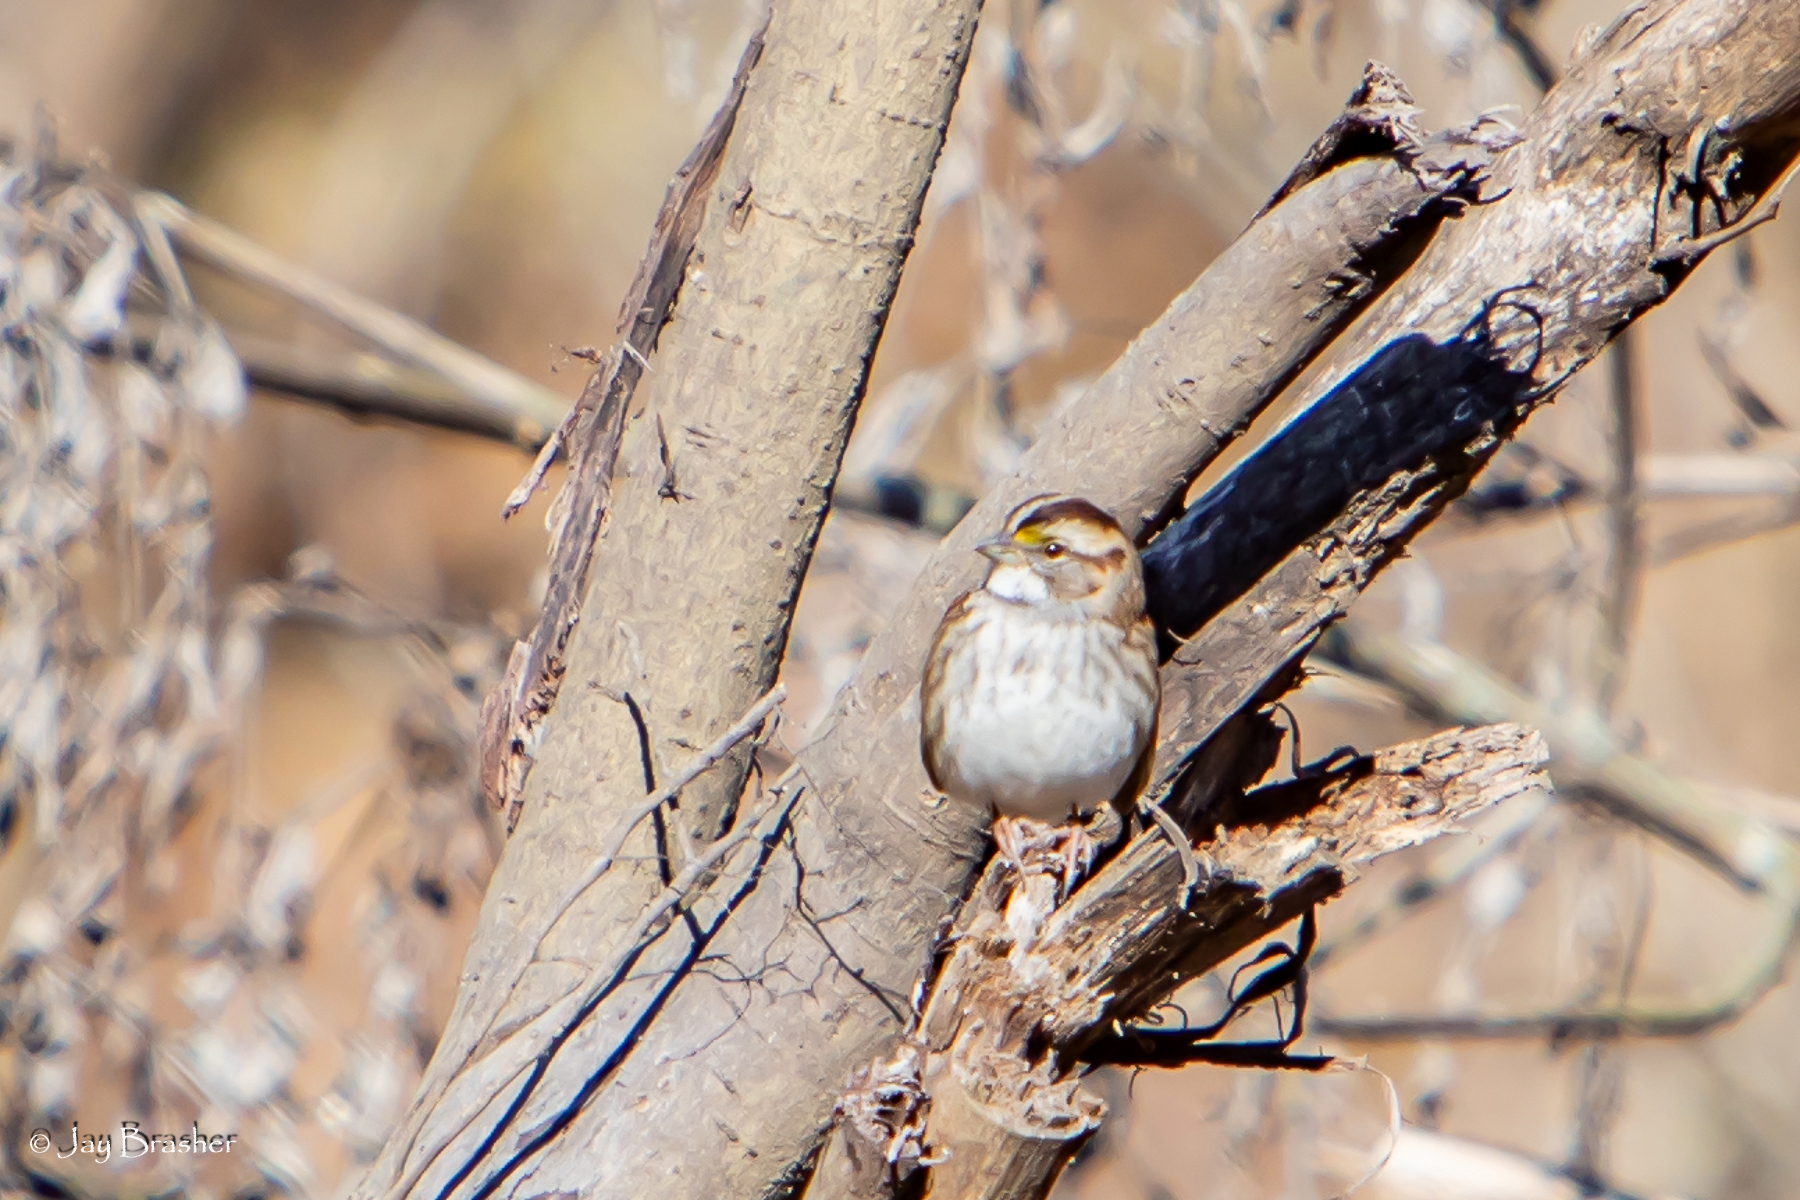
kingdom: Animalia
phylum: Chordata
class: Aves
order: Passeriformes
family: Passerellidae
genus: Zonotrichia
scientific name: Zonotrichia albicollis
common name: White-throated sparrow
